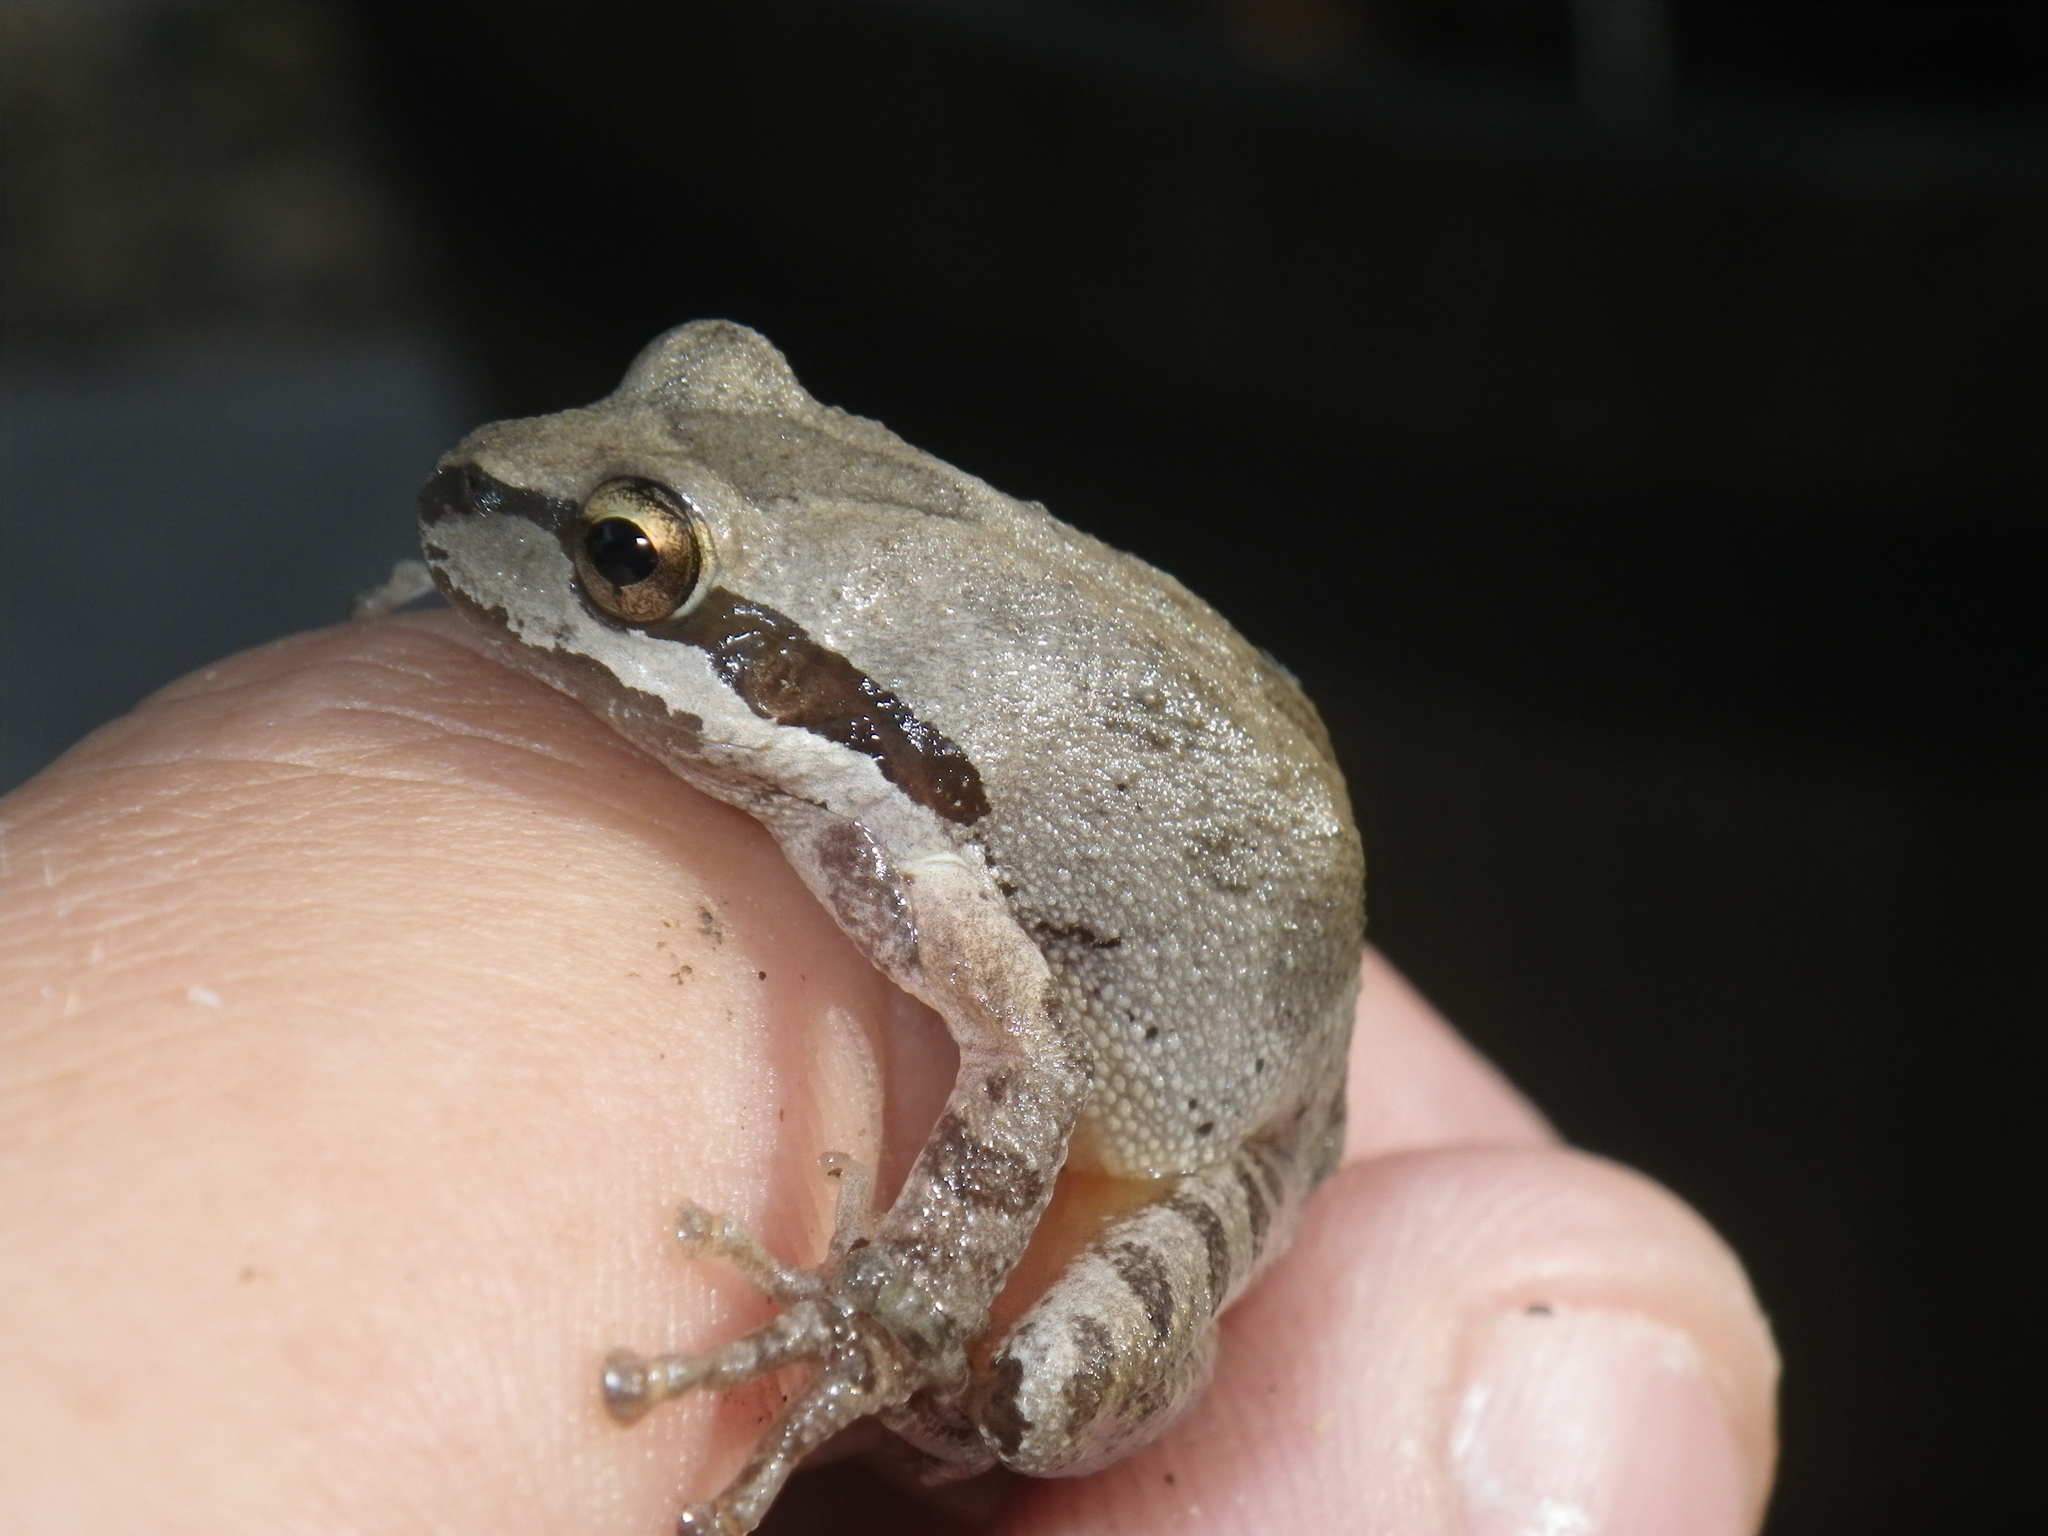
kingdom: Animalia
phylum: Chordata
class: Amphibia
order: Anura
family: Hylidae
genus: Pseudacris
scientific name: Pseudacris regilla
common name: Pacific chorus frog
